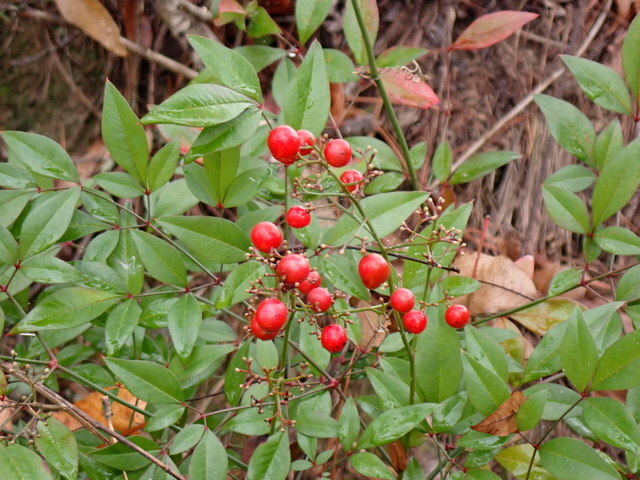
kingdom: Plantae
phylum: Tracheophyta
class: Magnoliopsida
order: Ranunculales
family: Berberidaceae
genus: Nandina
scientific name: Nandina domestica
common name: Sacred bamboo
